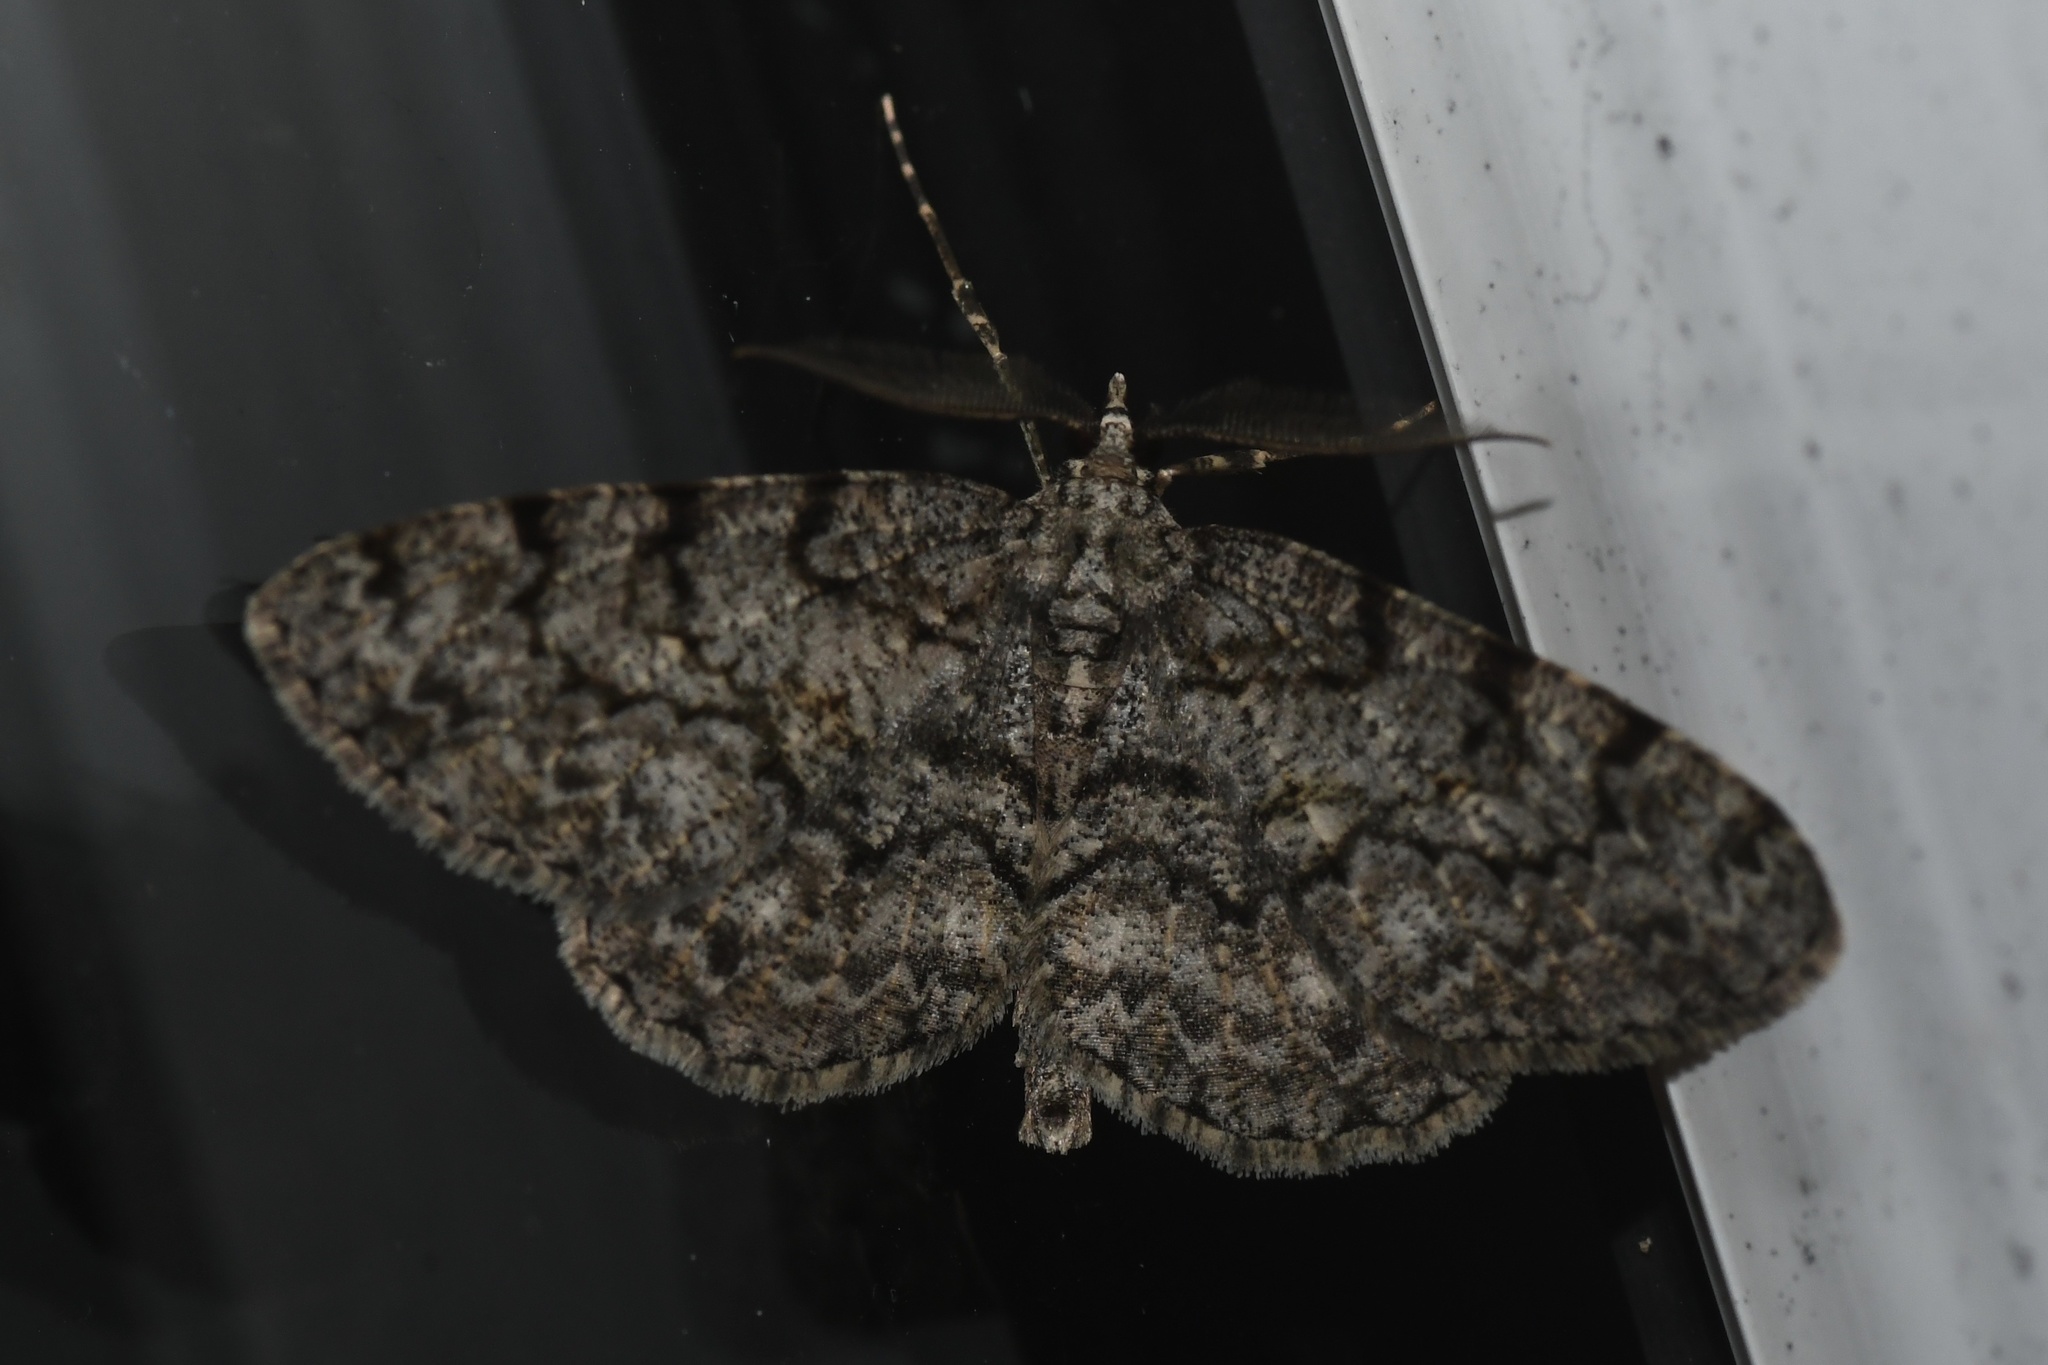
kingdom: Animalia
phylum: Arthropoda
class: Insecta
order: Lepidoptera
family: Geometridae
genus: Protoboarmia
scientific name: Protoboarmia porcelaria
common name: Porcelain gray
